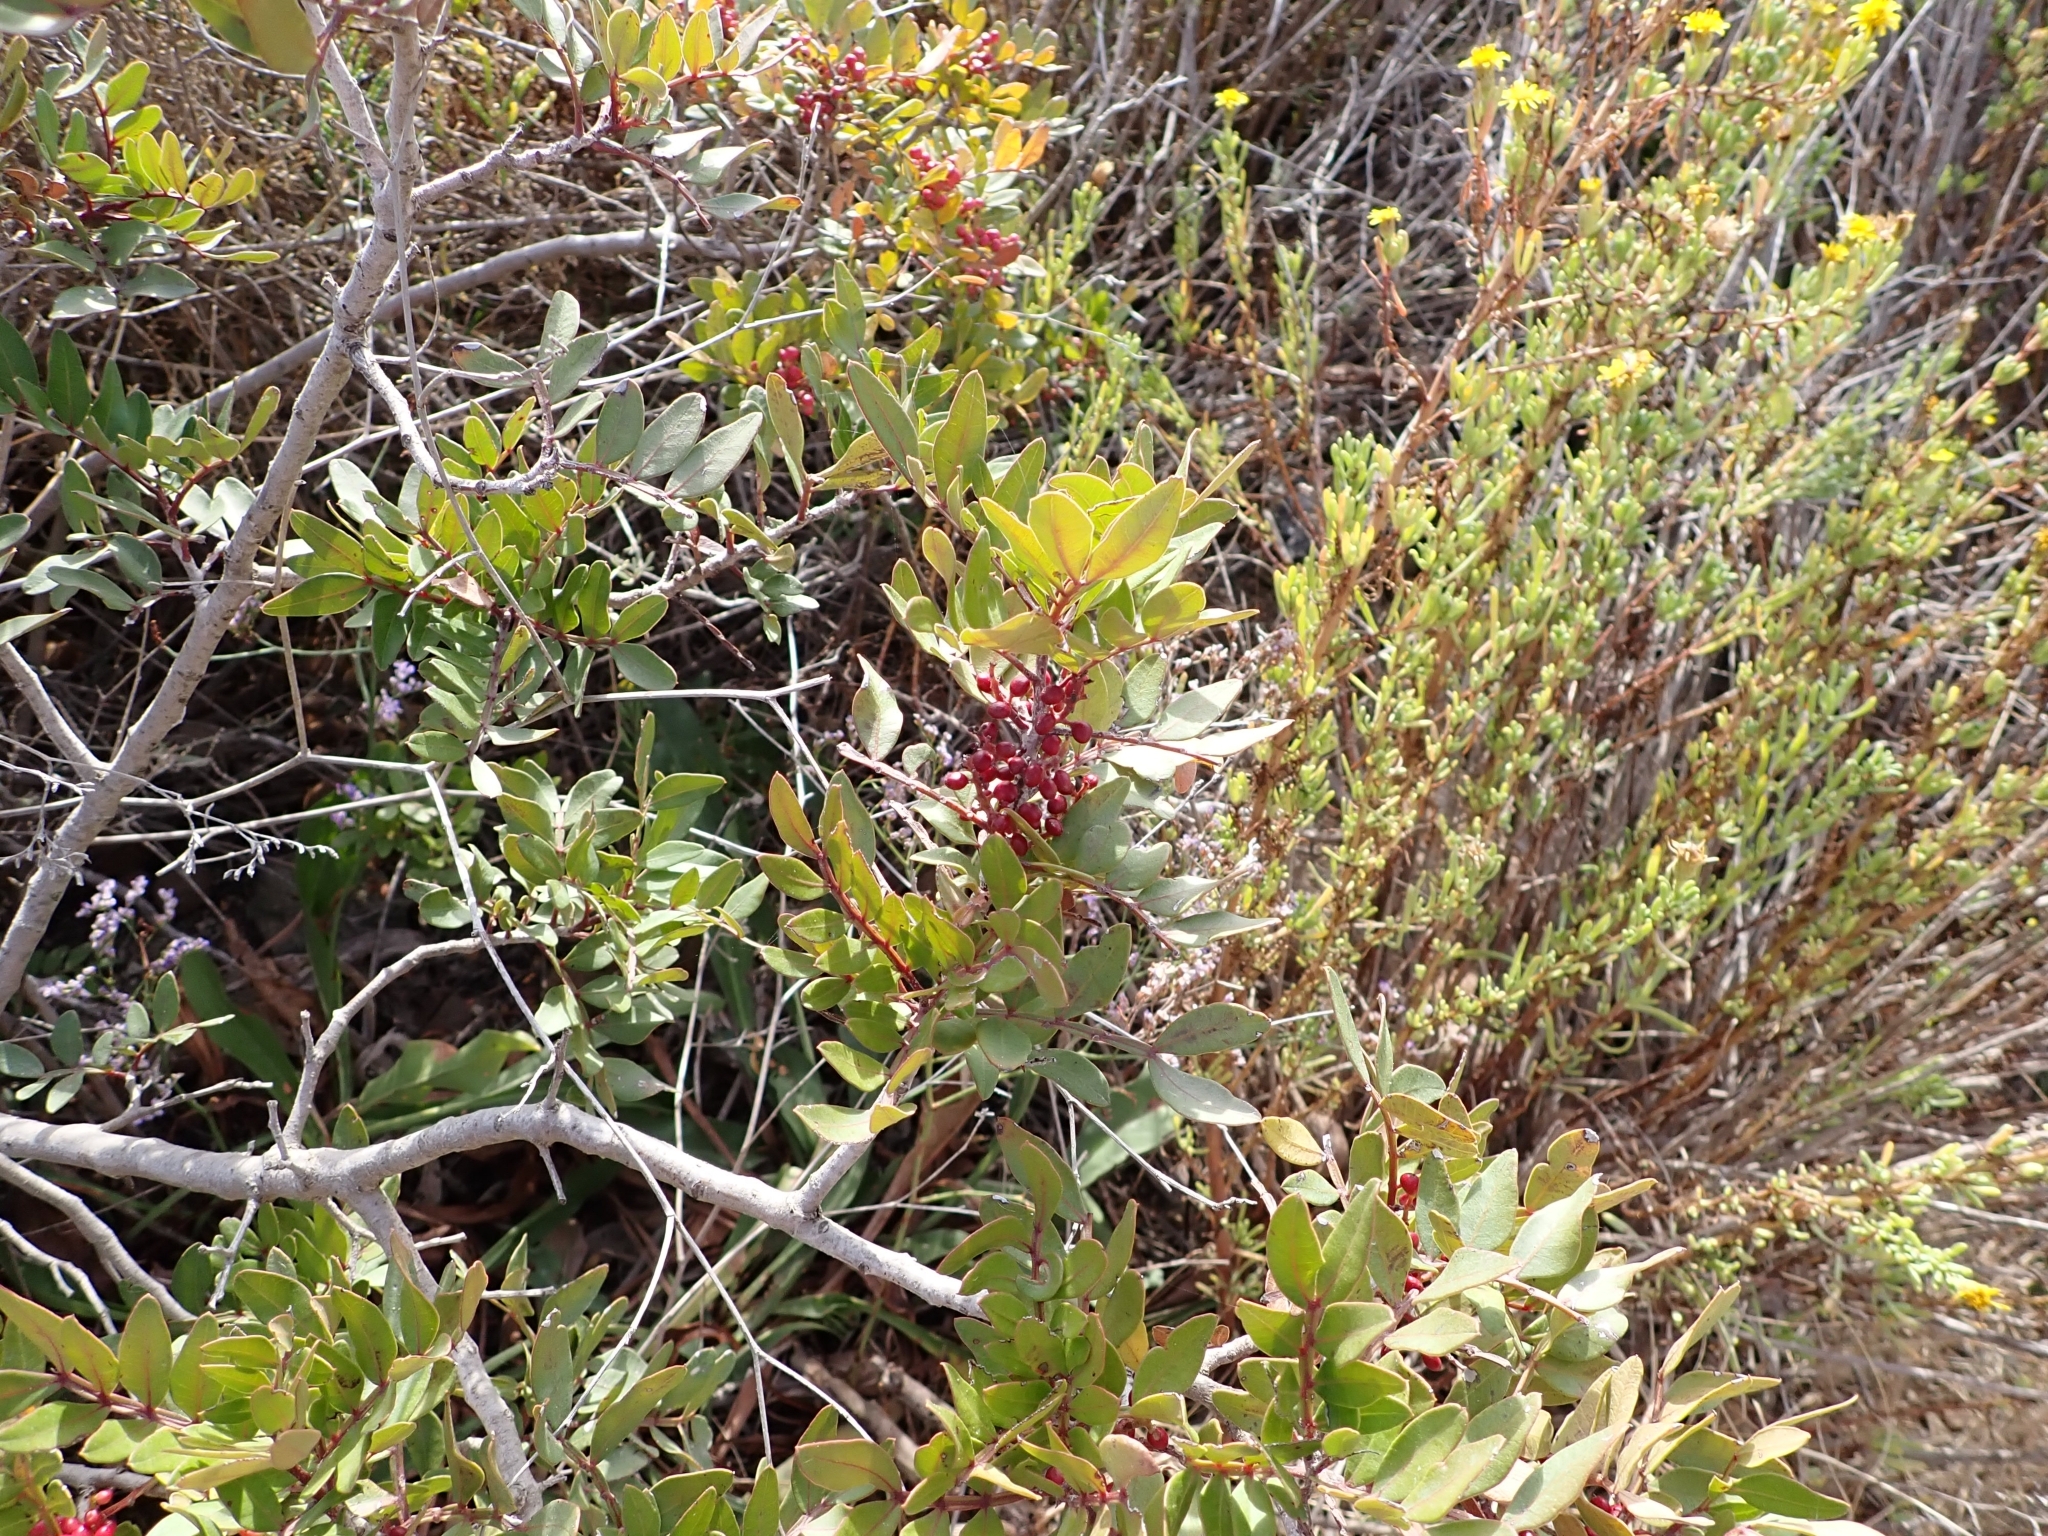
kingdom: Plantae
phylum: Tracheophyta
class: Magnoliopsida
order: Sapindales
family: Anacardiaceae
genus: Pistacia
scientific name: Pistacia lentiscus
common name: Lentisk
